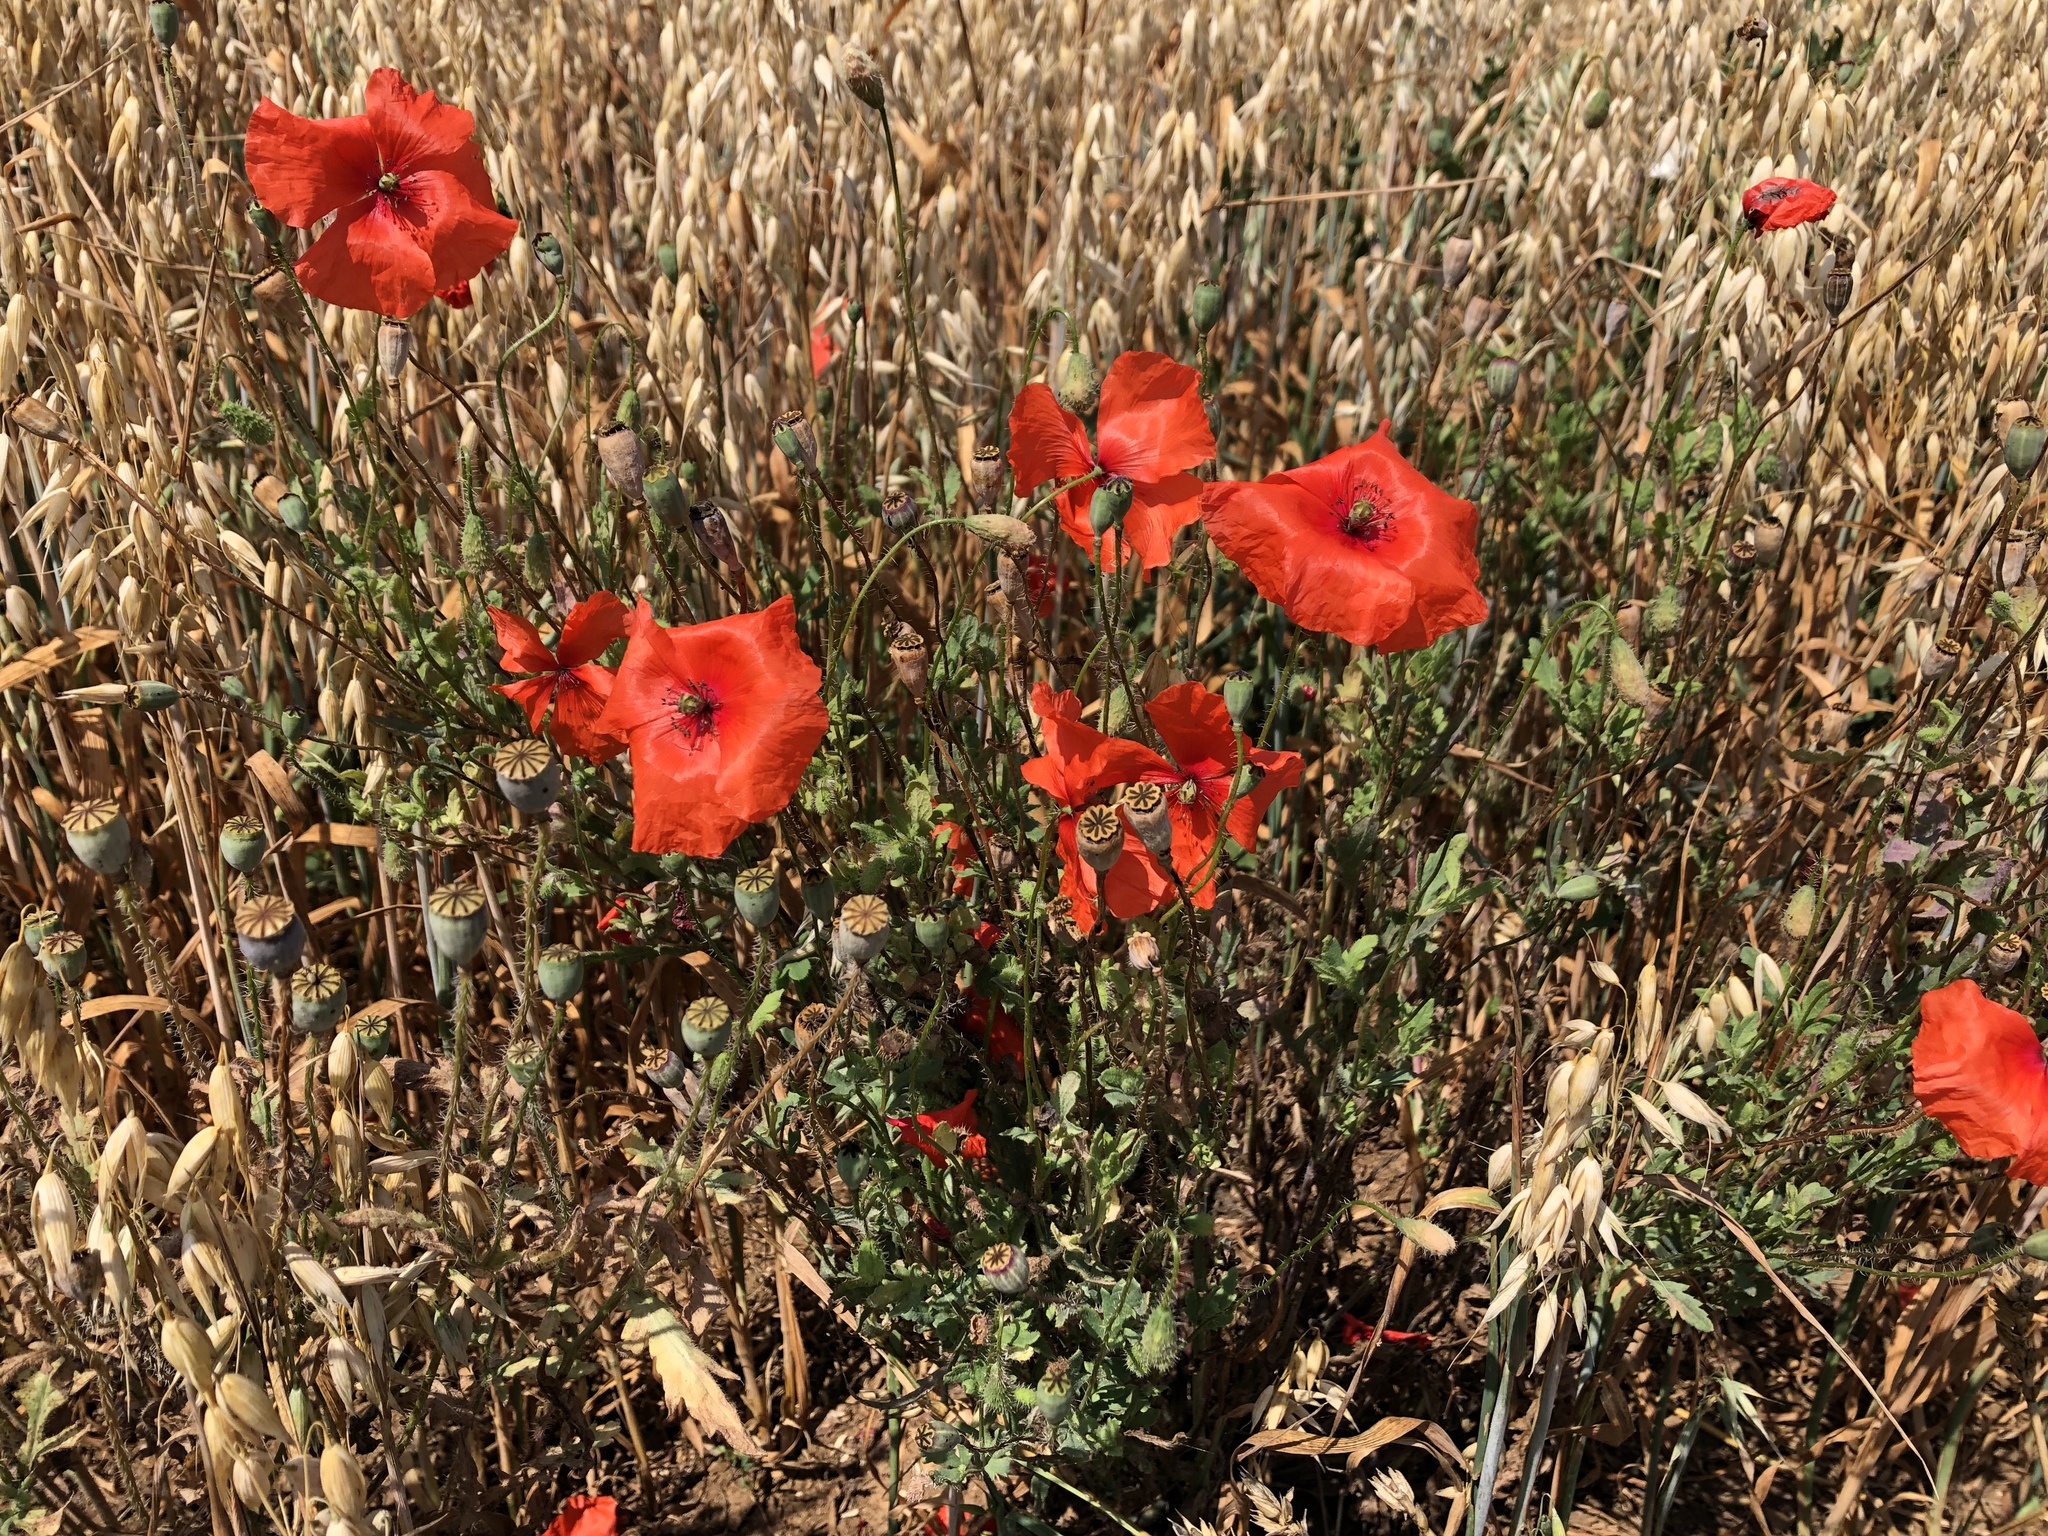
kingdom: Plantae
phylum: Tracheophyta
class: Magnoliopsida
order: Ranunculales
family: Papaveraceae
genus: Papaver
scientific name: Papaver rhoeas
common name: Corn poppy
